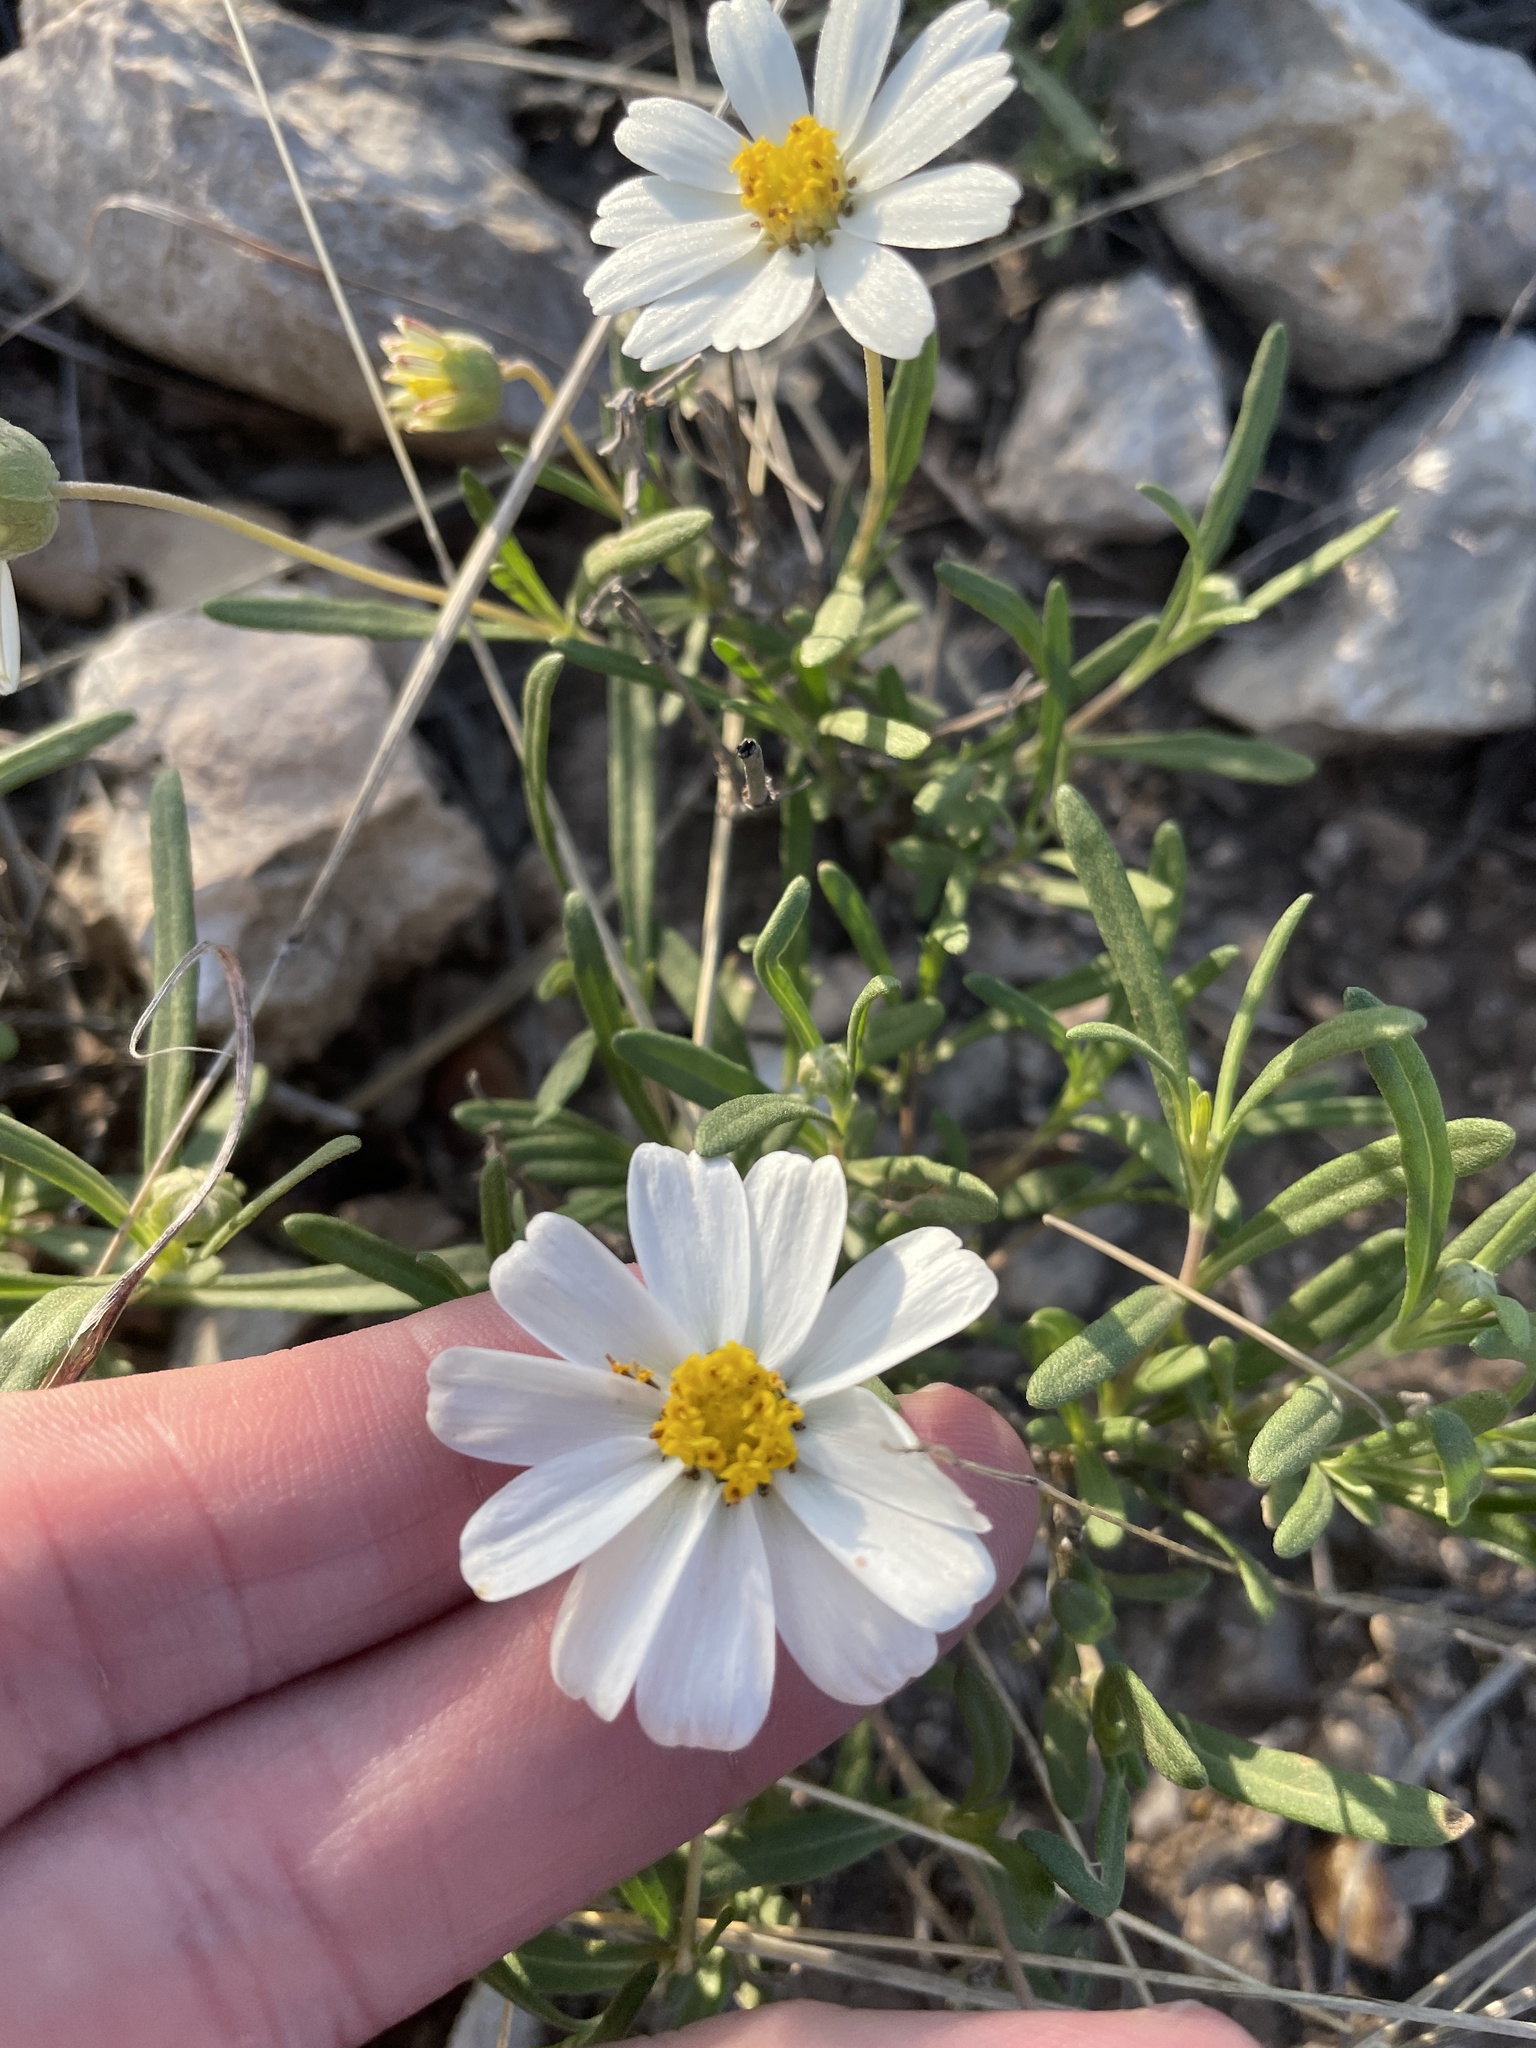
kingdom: Plantae
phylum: Tracheophyta
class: Magnoliopsida
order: Asterales
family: Asteraceae
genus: Melampodium
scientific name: Melampodium leucanthum
